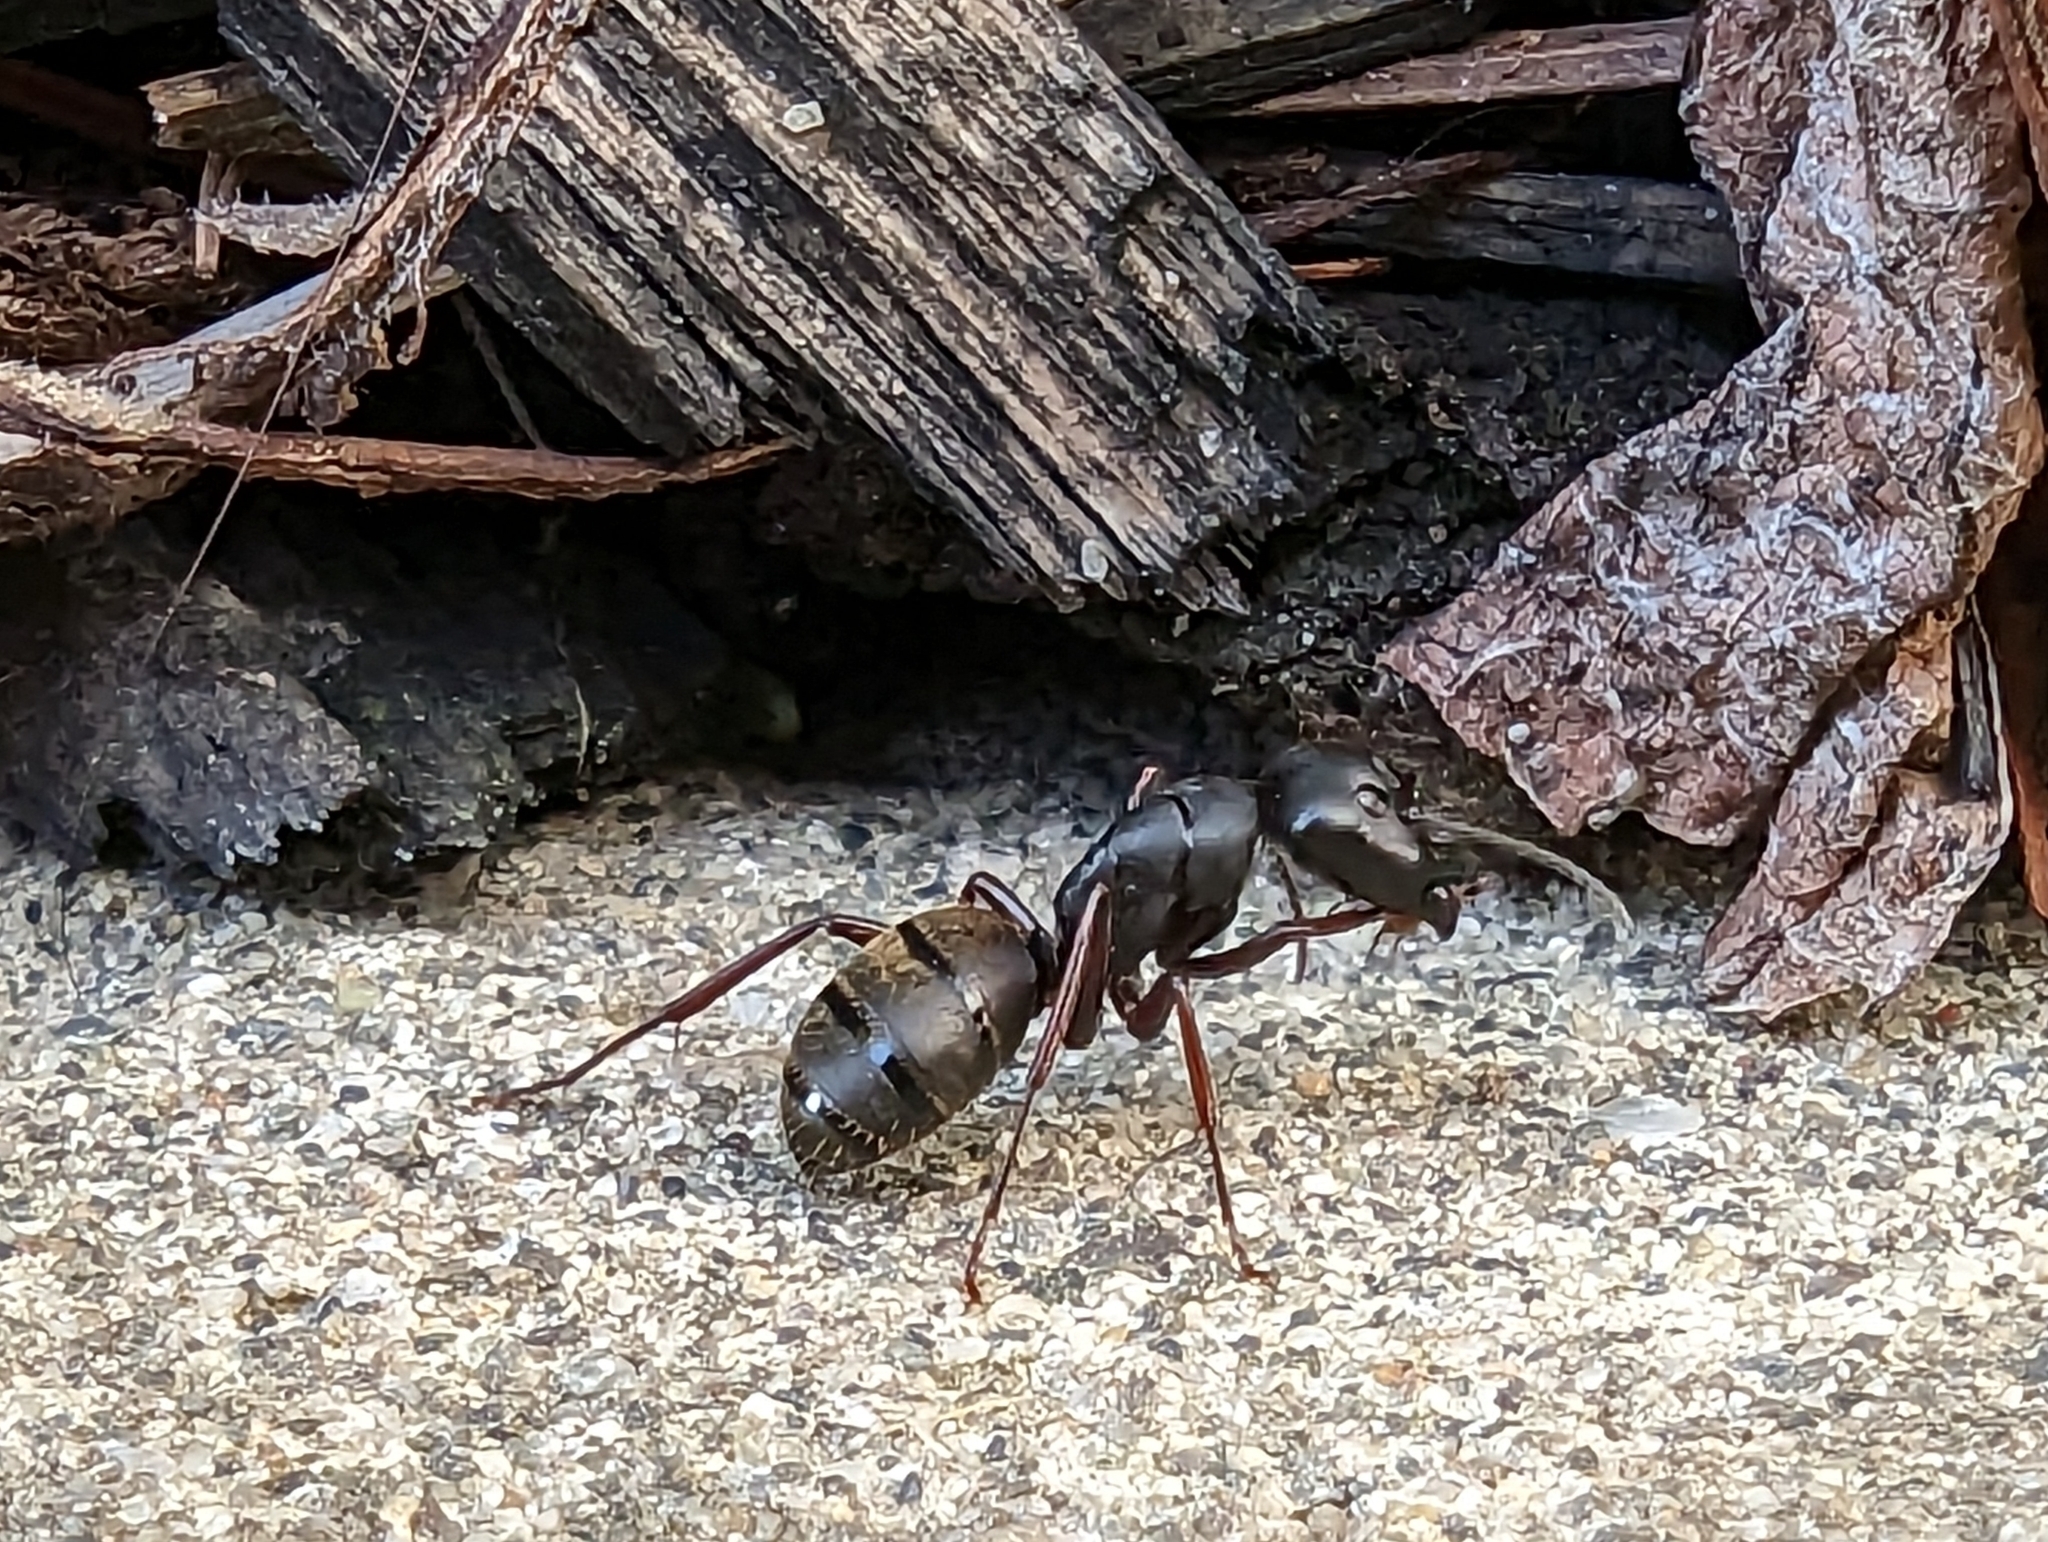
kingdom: Animalia
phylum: Arthropoda
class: Insecta
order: Hymenoptera
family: Formicidae
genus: Camponotus
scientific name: Camponotus modoc
